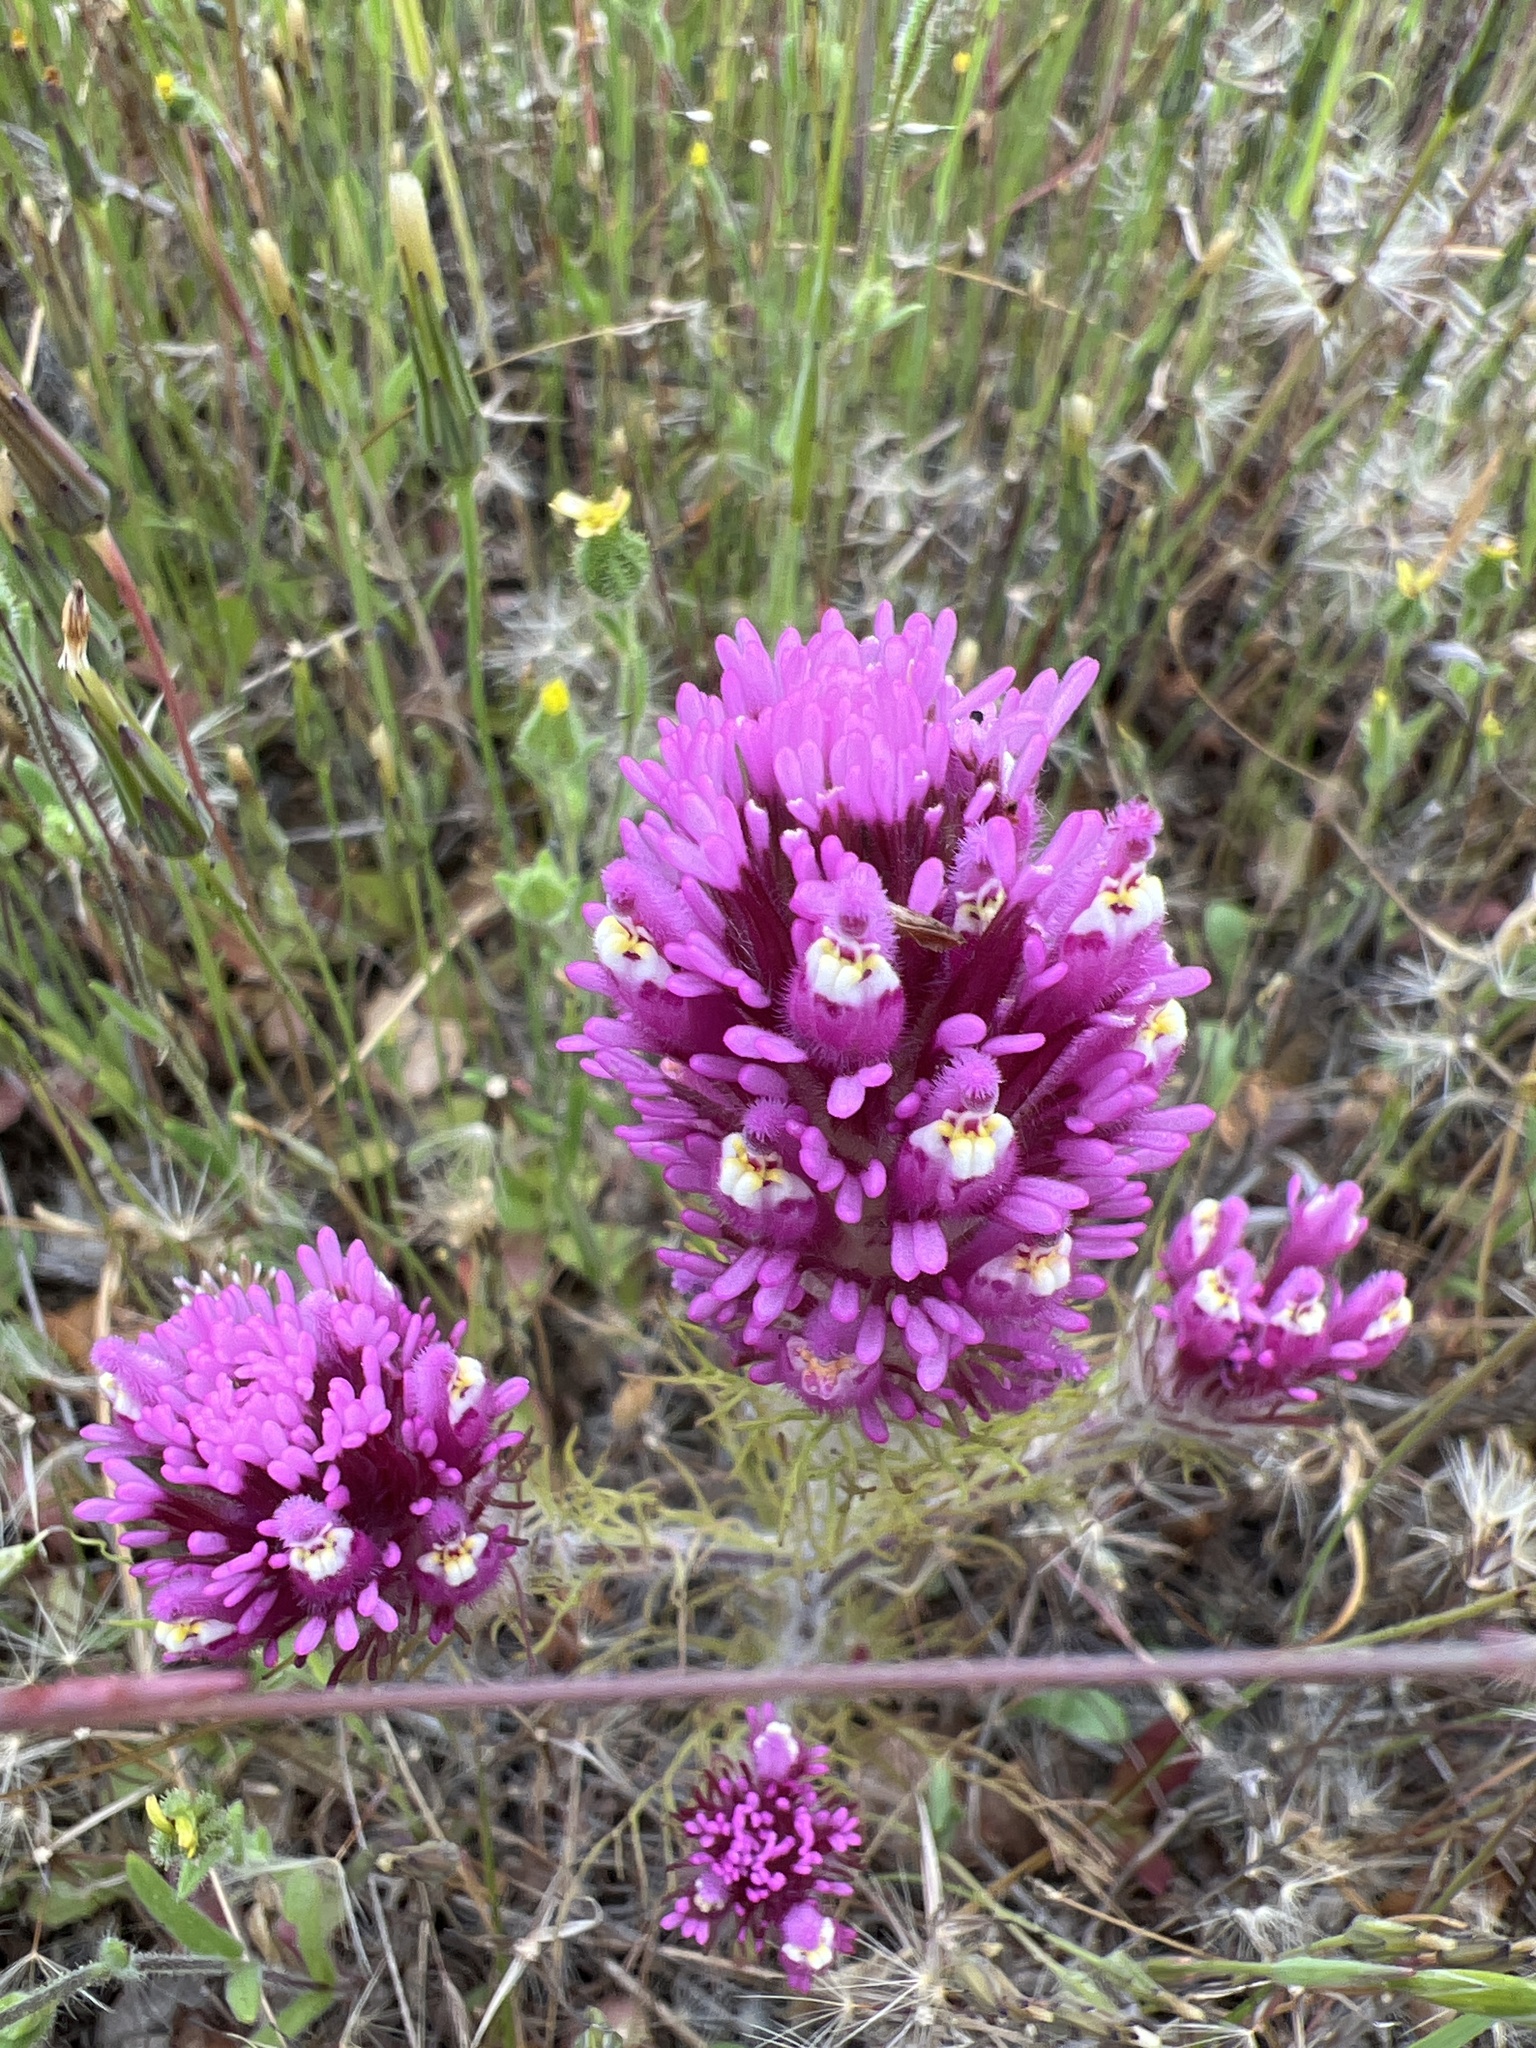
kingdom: Plantae
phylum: Tracheophyta
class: Magnoliopsida
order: Lamiales
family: Orobanchaceae
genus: Castilleja
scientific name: Castilleja exserta
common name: Purple owl-clover
